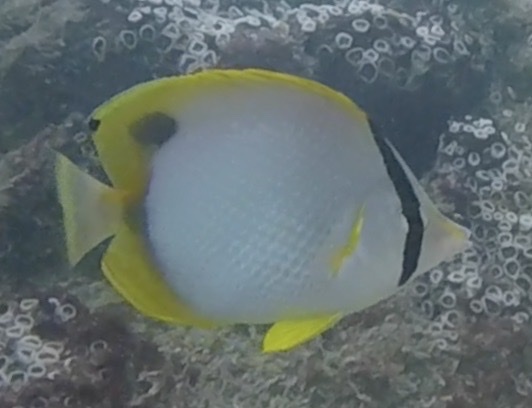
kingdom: Animalia
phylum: Chordata
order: Perciformes
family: Chaetodontidae
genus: Chaetodon
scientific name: Chaetodon ocellatus
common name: Spotfin butterflyfish
